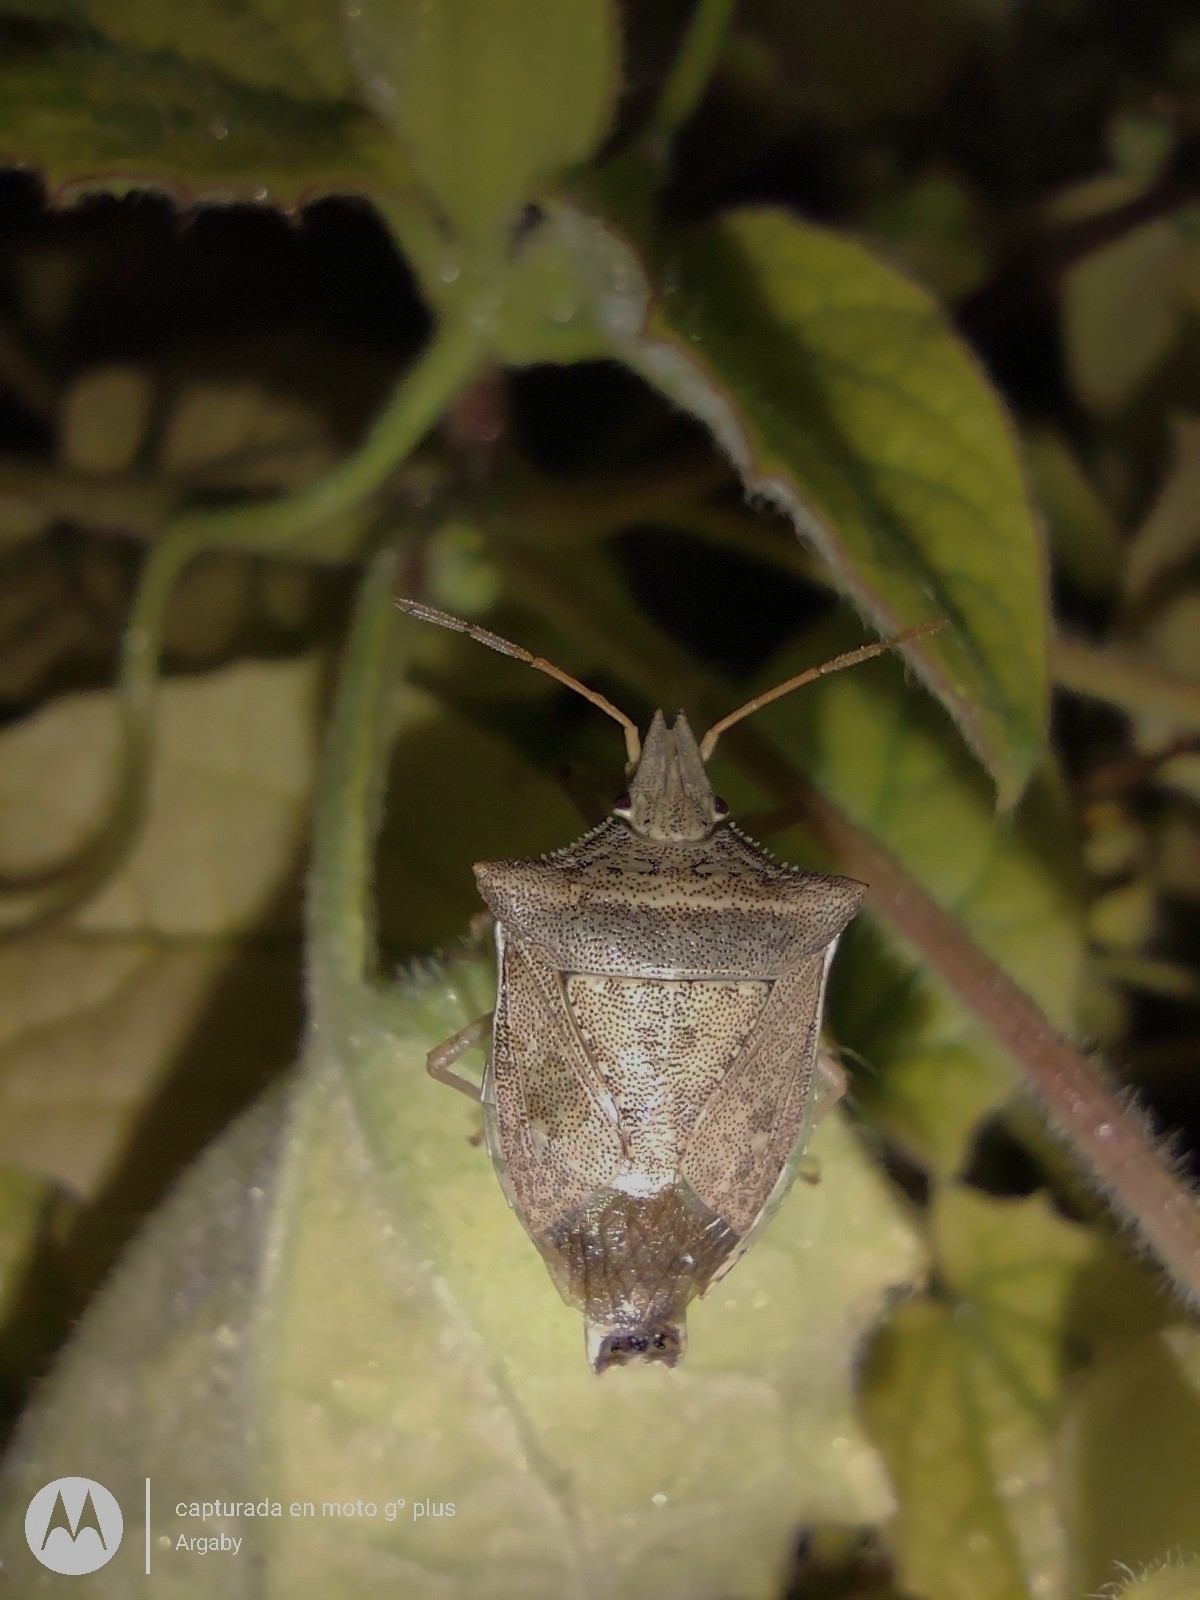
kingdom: Animalia
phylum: Arthropoda
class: Insecta
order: Hemiptera
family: Pentatomidae
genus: Diceraeus
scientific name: Diceraeus furcatus
